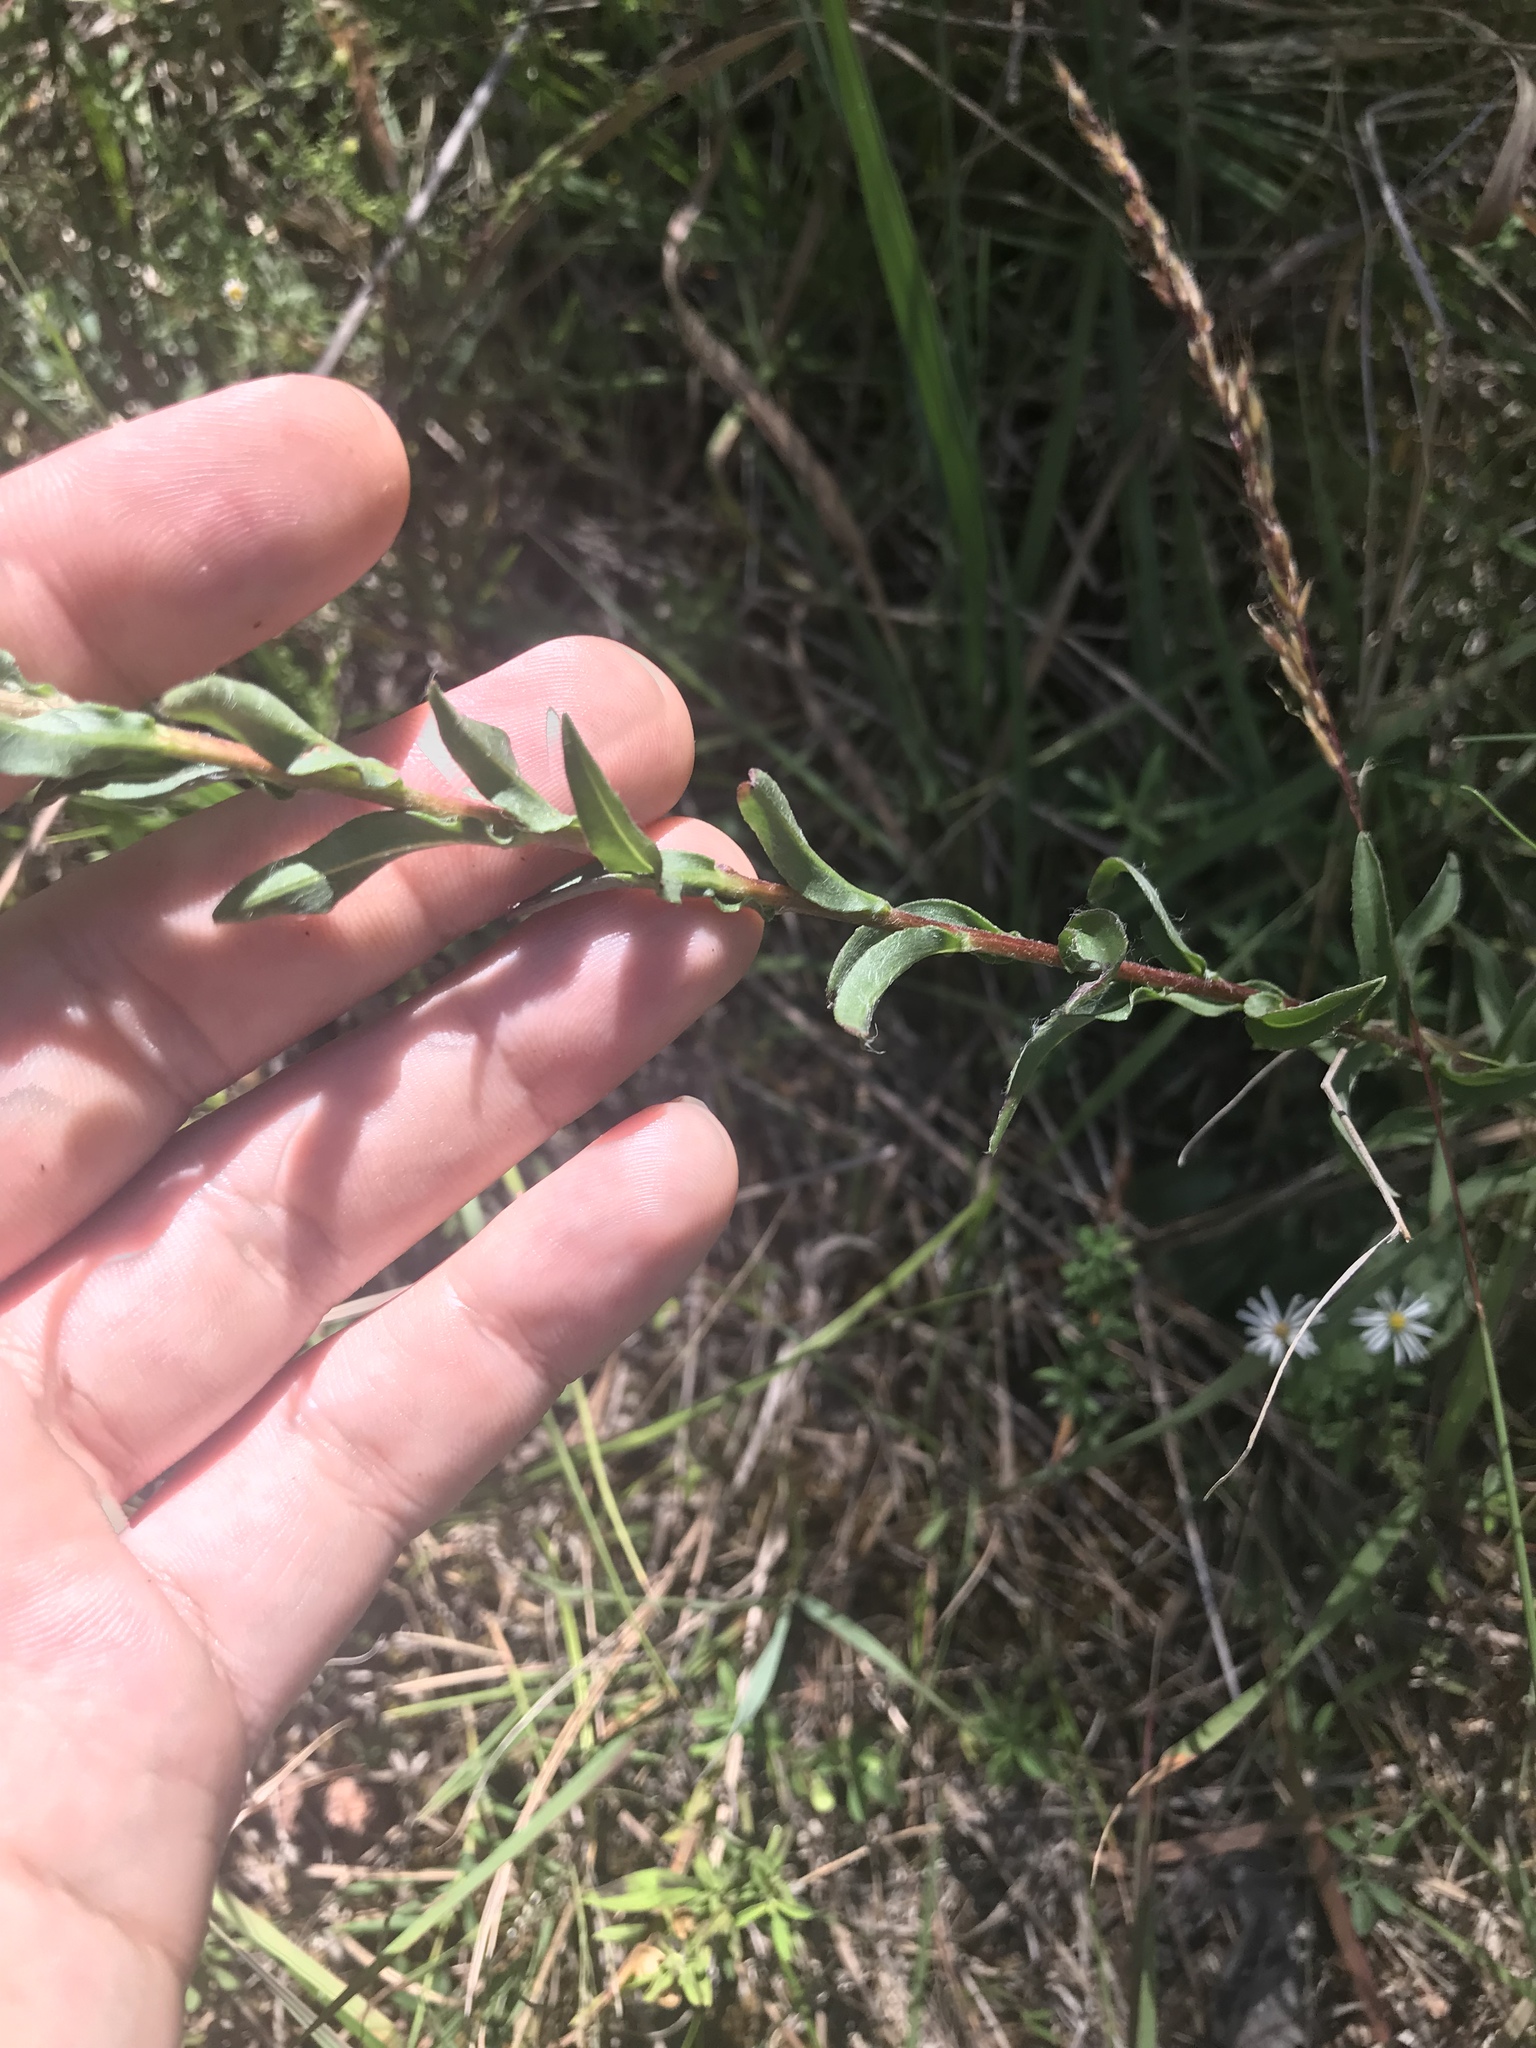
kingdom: Plantae
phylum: Tracheophyta
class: Magnoliopsida
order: Asterales
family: Asteraceae
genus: Chrysopsis
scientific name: Chrysopsis mariana
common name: Maryland golden-aster
